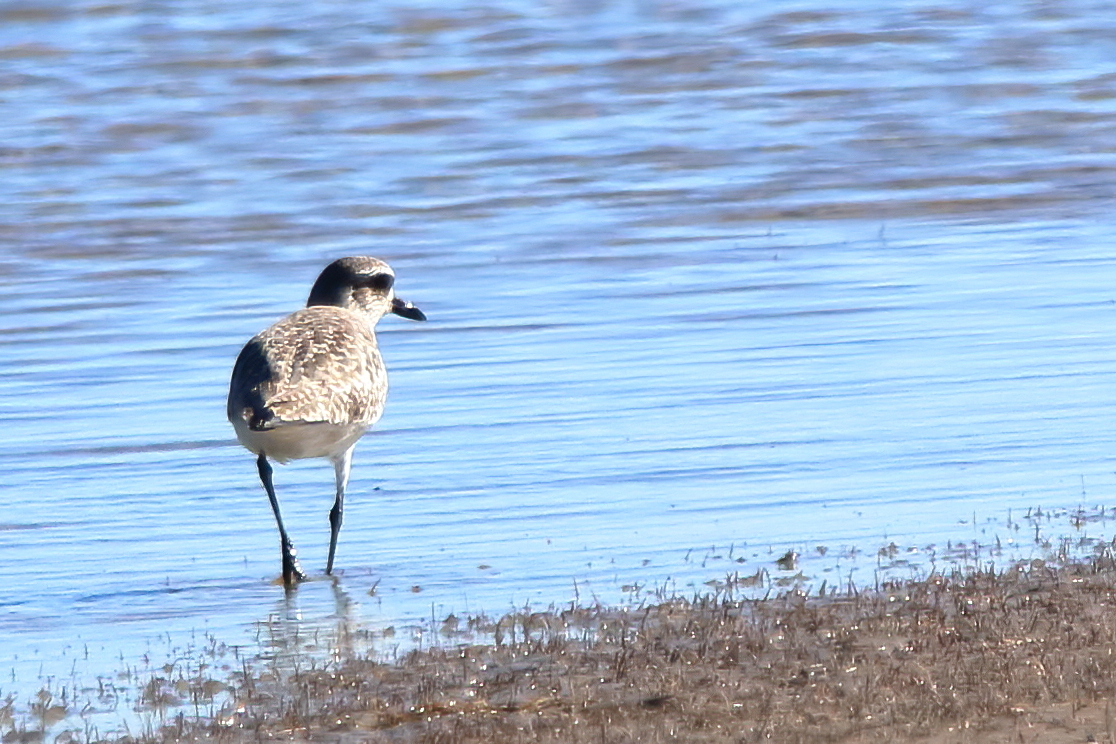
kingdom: Animalia
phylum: Chordata
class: Aves
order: Charadriiformes
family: Charadriidae
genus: Pluvialis
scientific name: Pluvialis squatarola
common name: Grey plover
